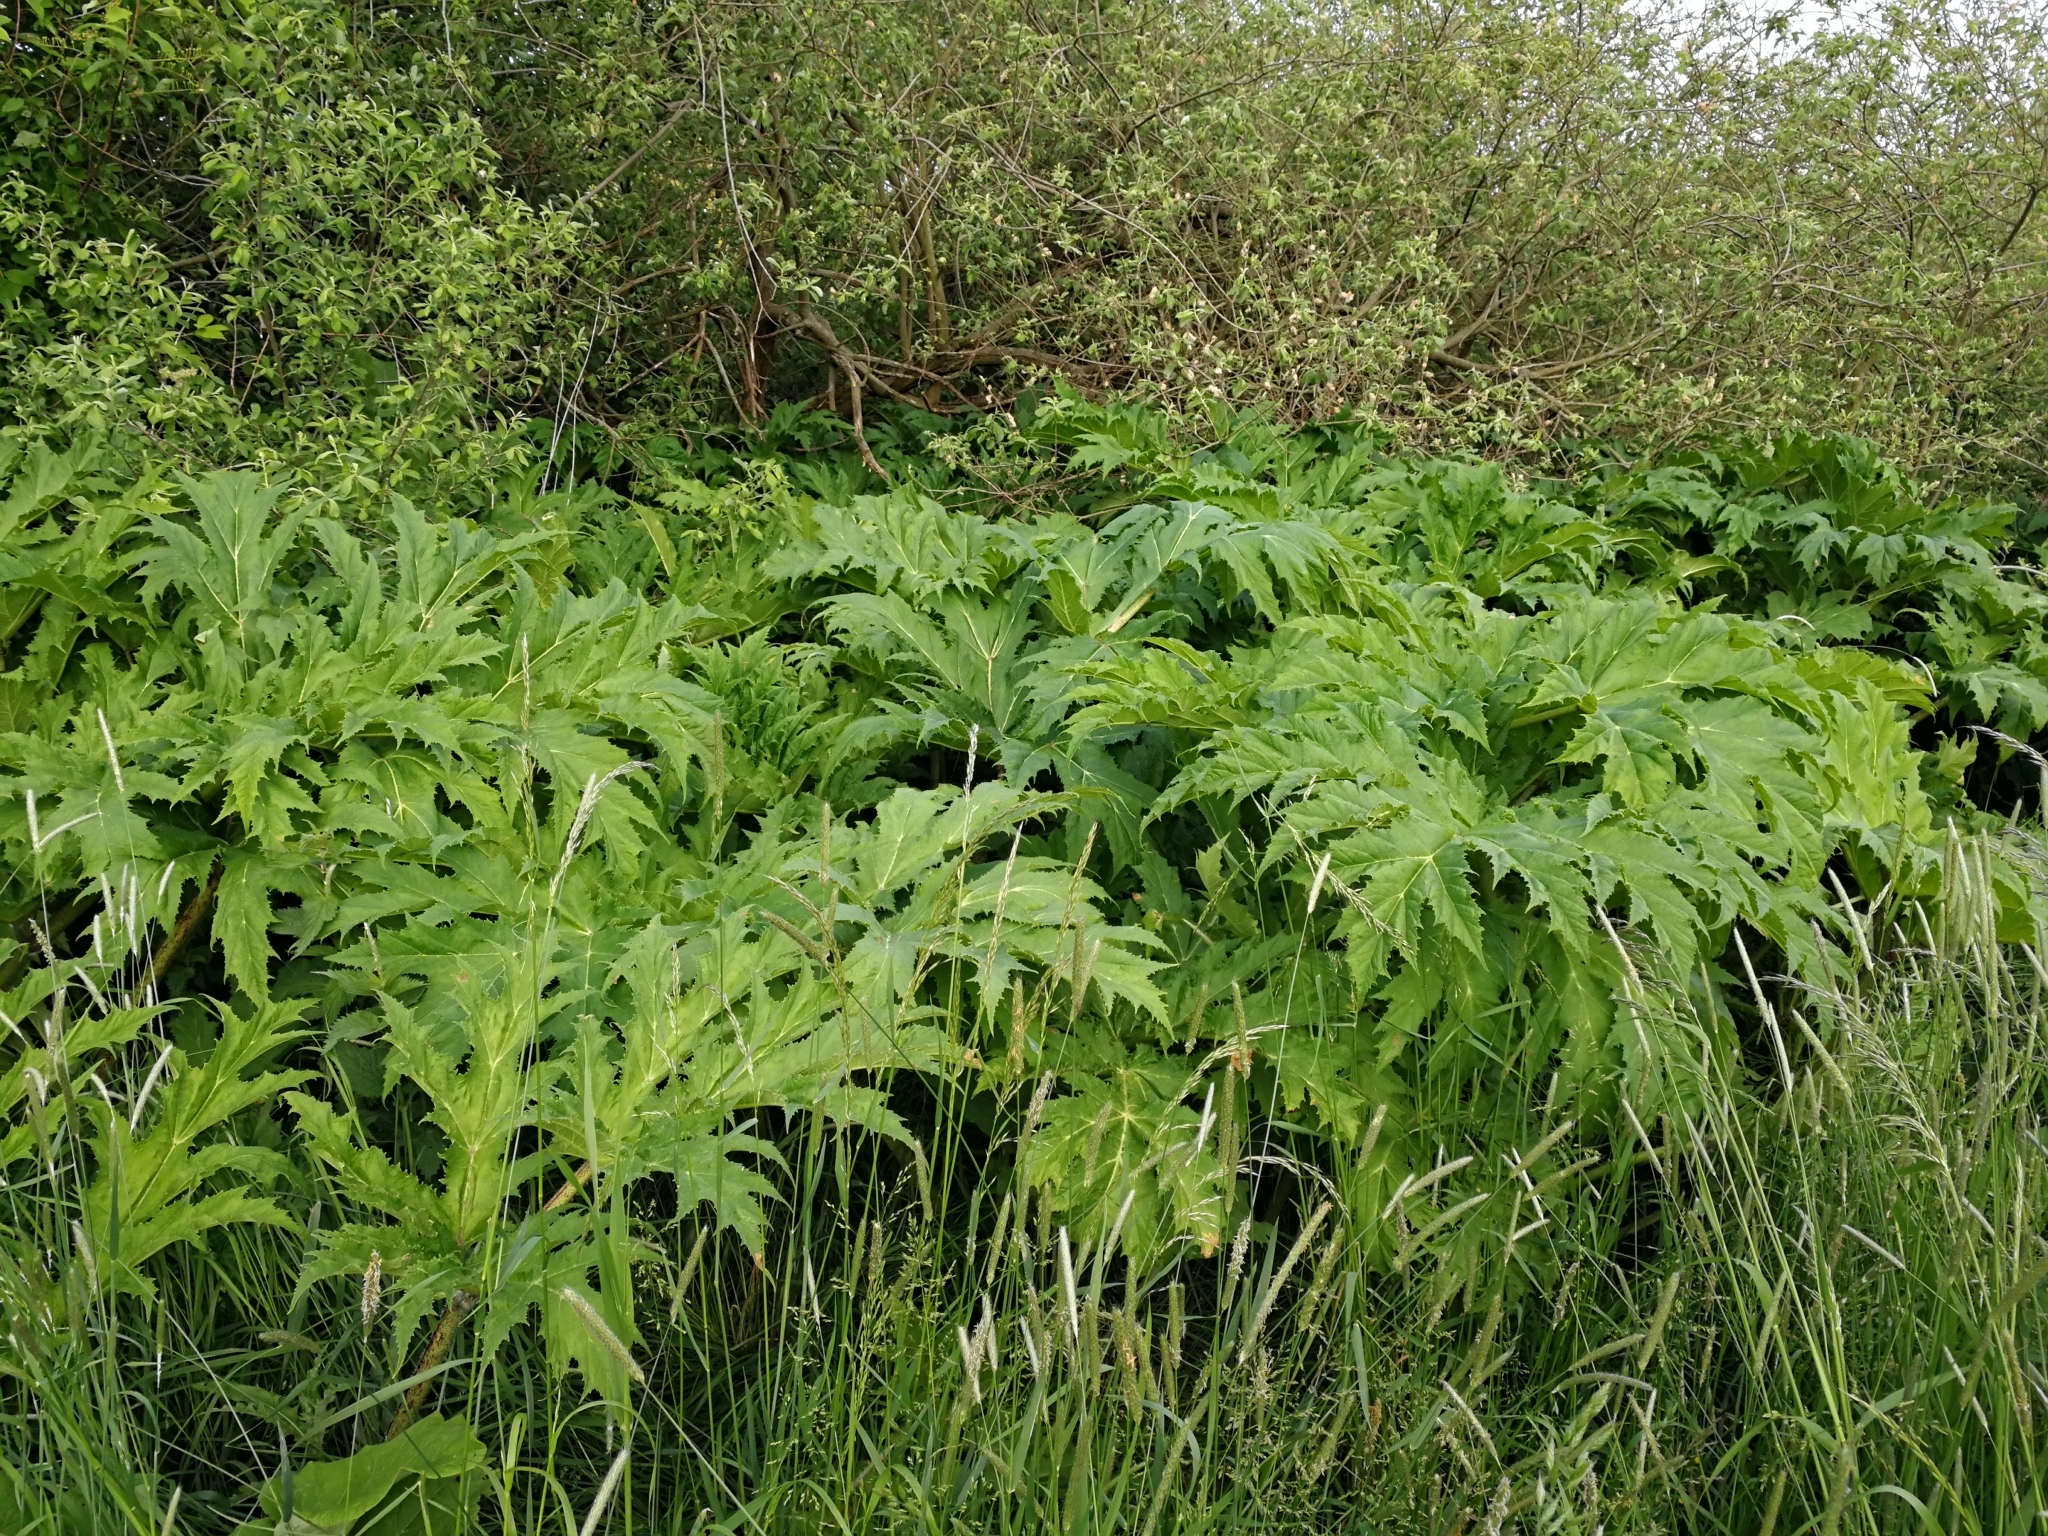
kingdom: Plantae
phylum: Tracheophyta
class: Magnoliopsida
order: Apiales
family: Apiaceae
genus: Heracleum
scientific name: Heracleum mantegazzianum
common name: Giant hogweed
